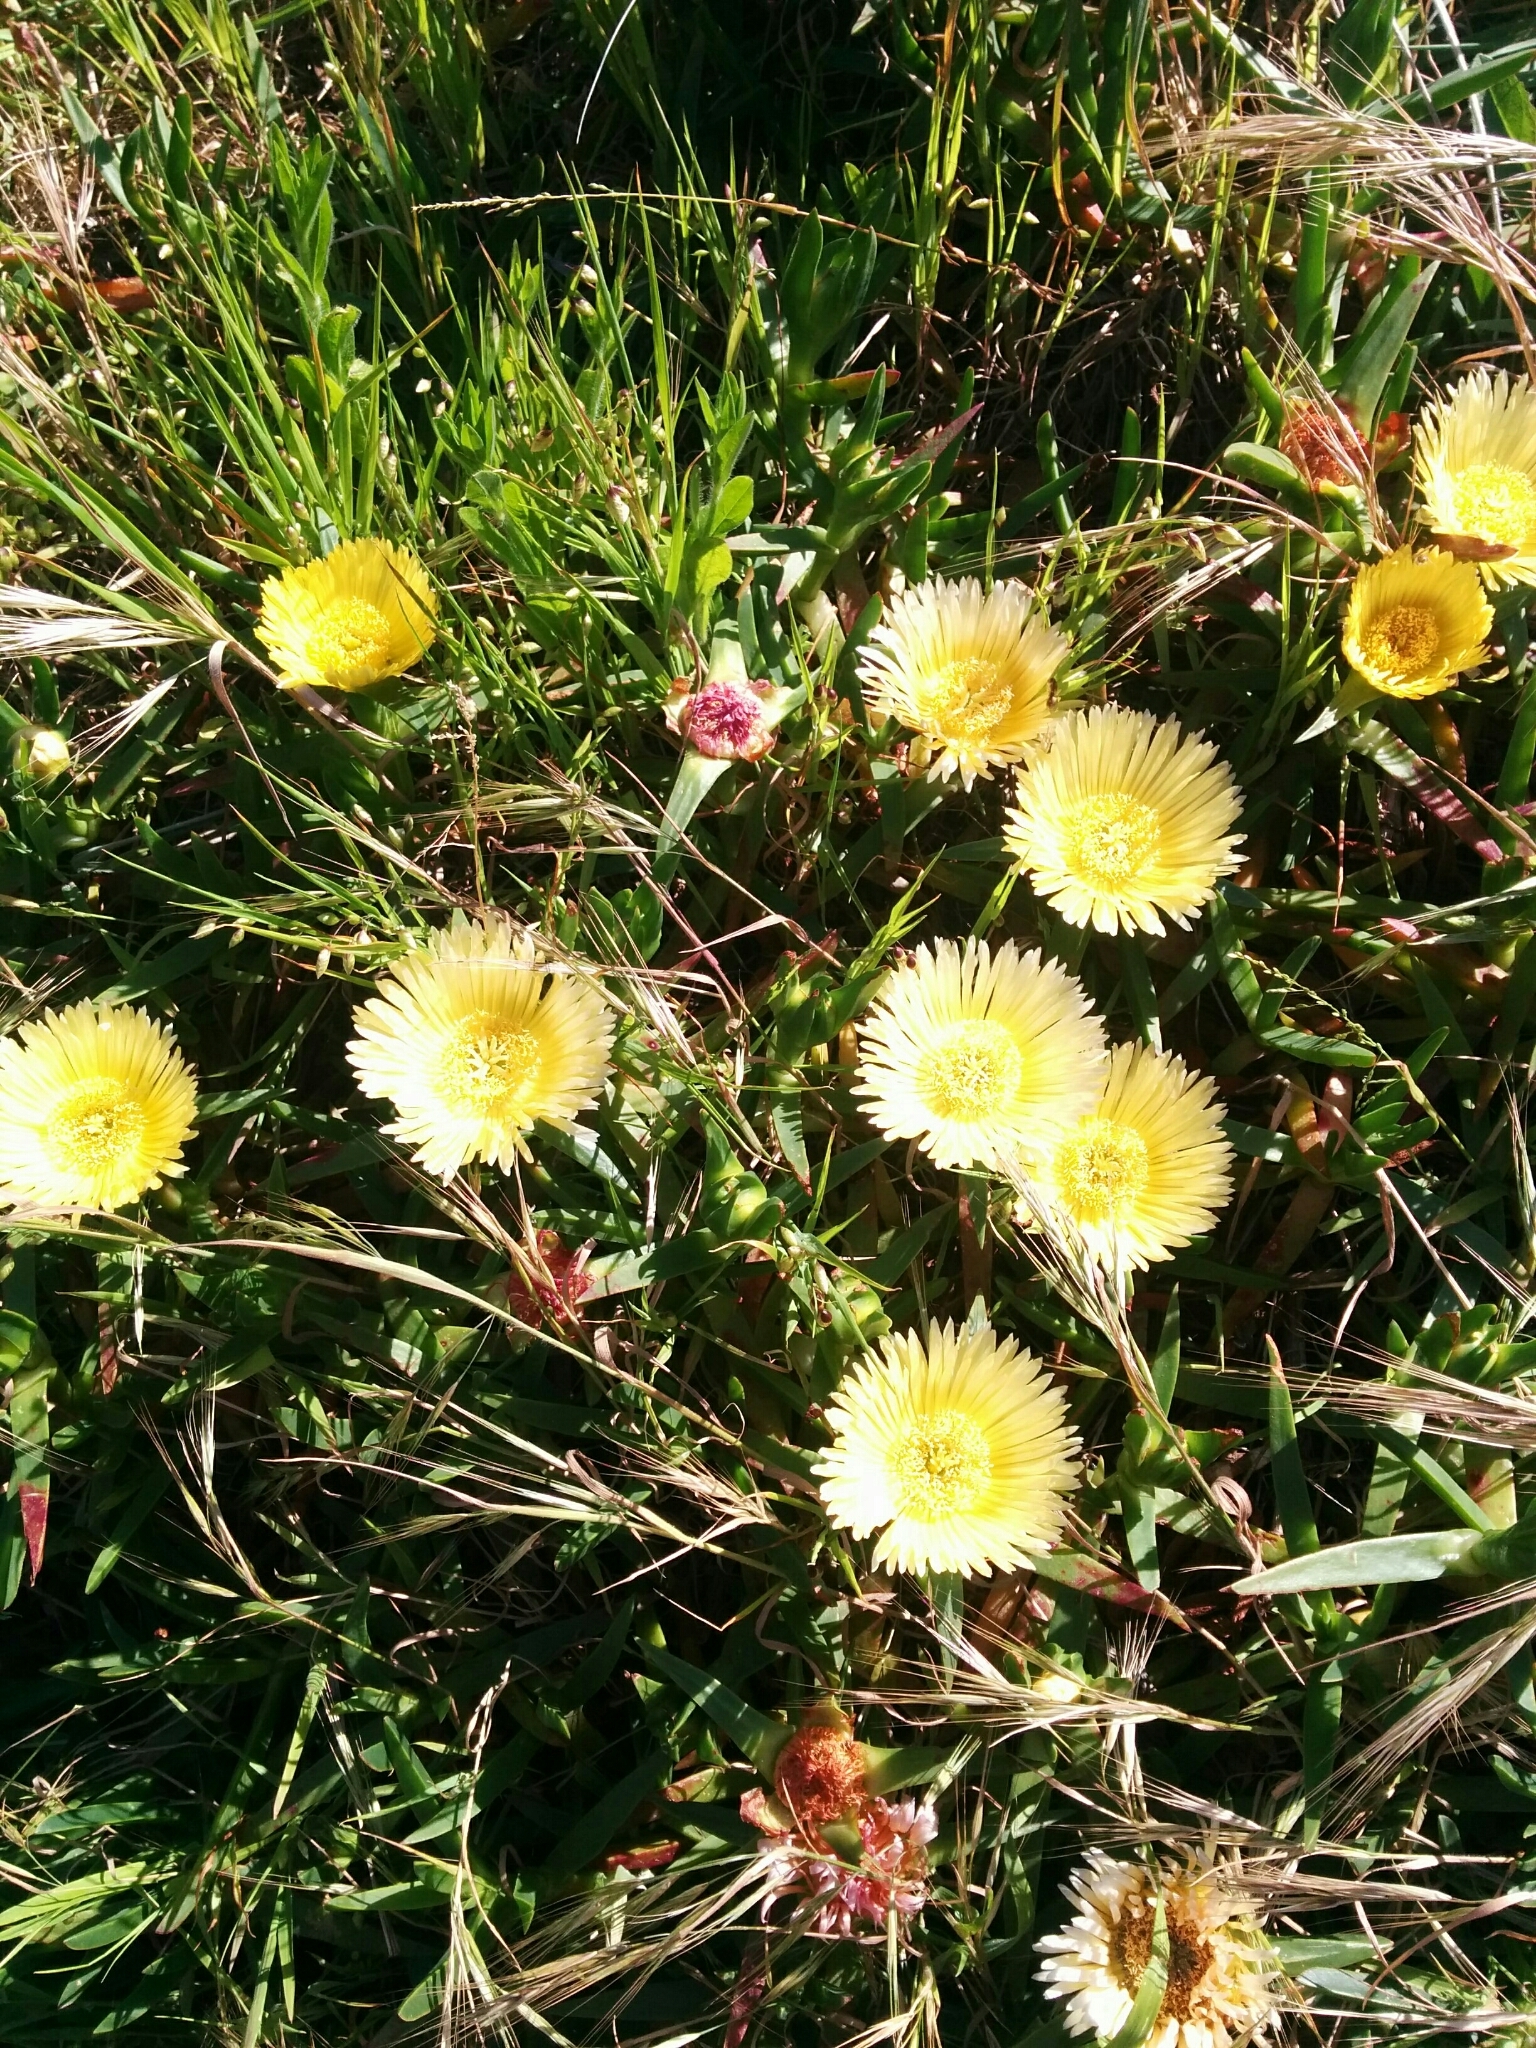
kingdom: Plantae
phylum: Tracheophyta
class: Magnoliopsida
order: Caryophyllales
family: Aizoaceae
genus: Carpobrotus
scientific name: Carpobrotus edulis
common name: Hottentot-fig
